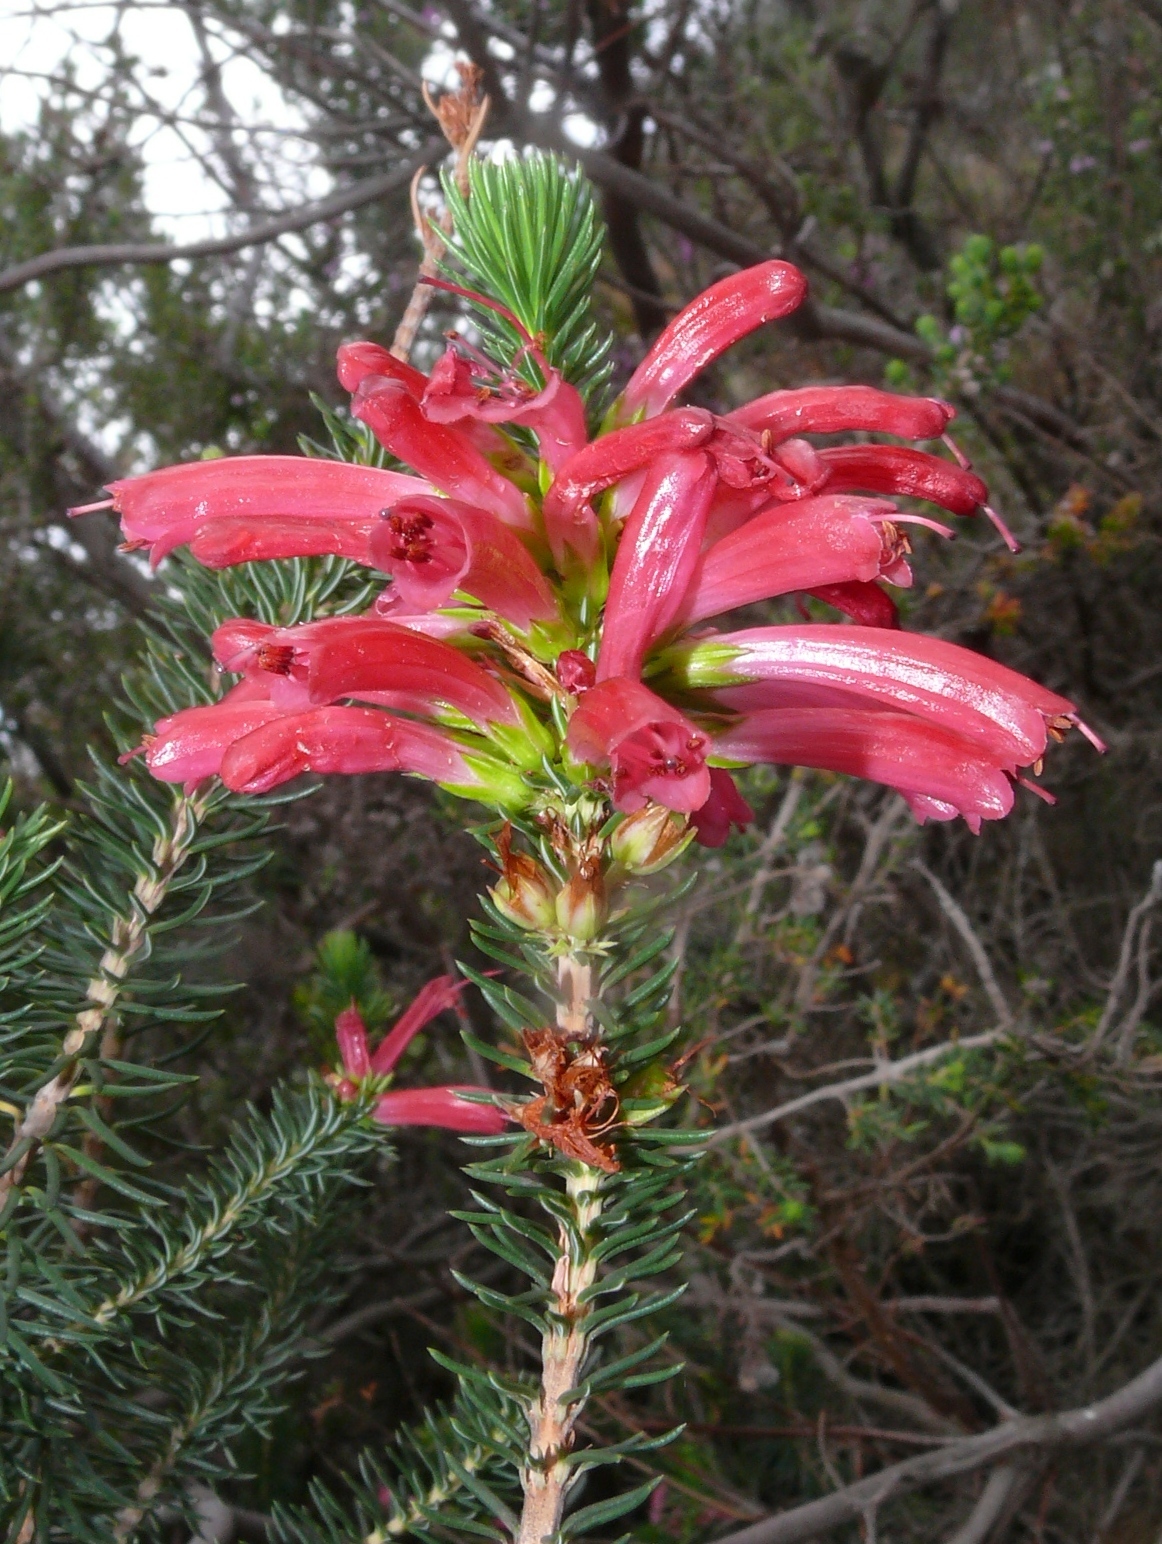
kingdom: Plantae
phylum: Tracheophyta
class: Magnoliopsida
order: Ericales
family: Ericaceae
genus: Erica
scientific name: Erica abietina
